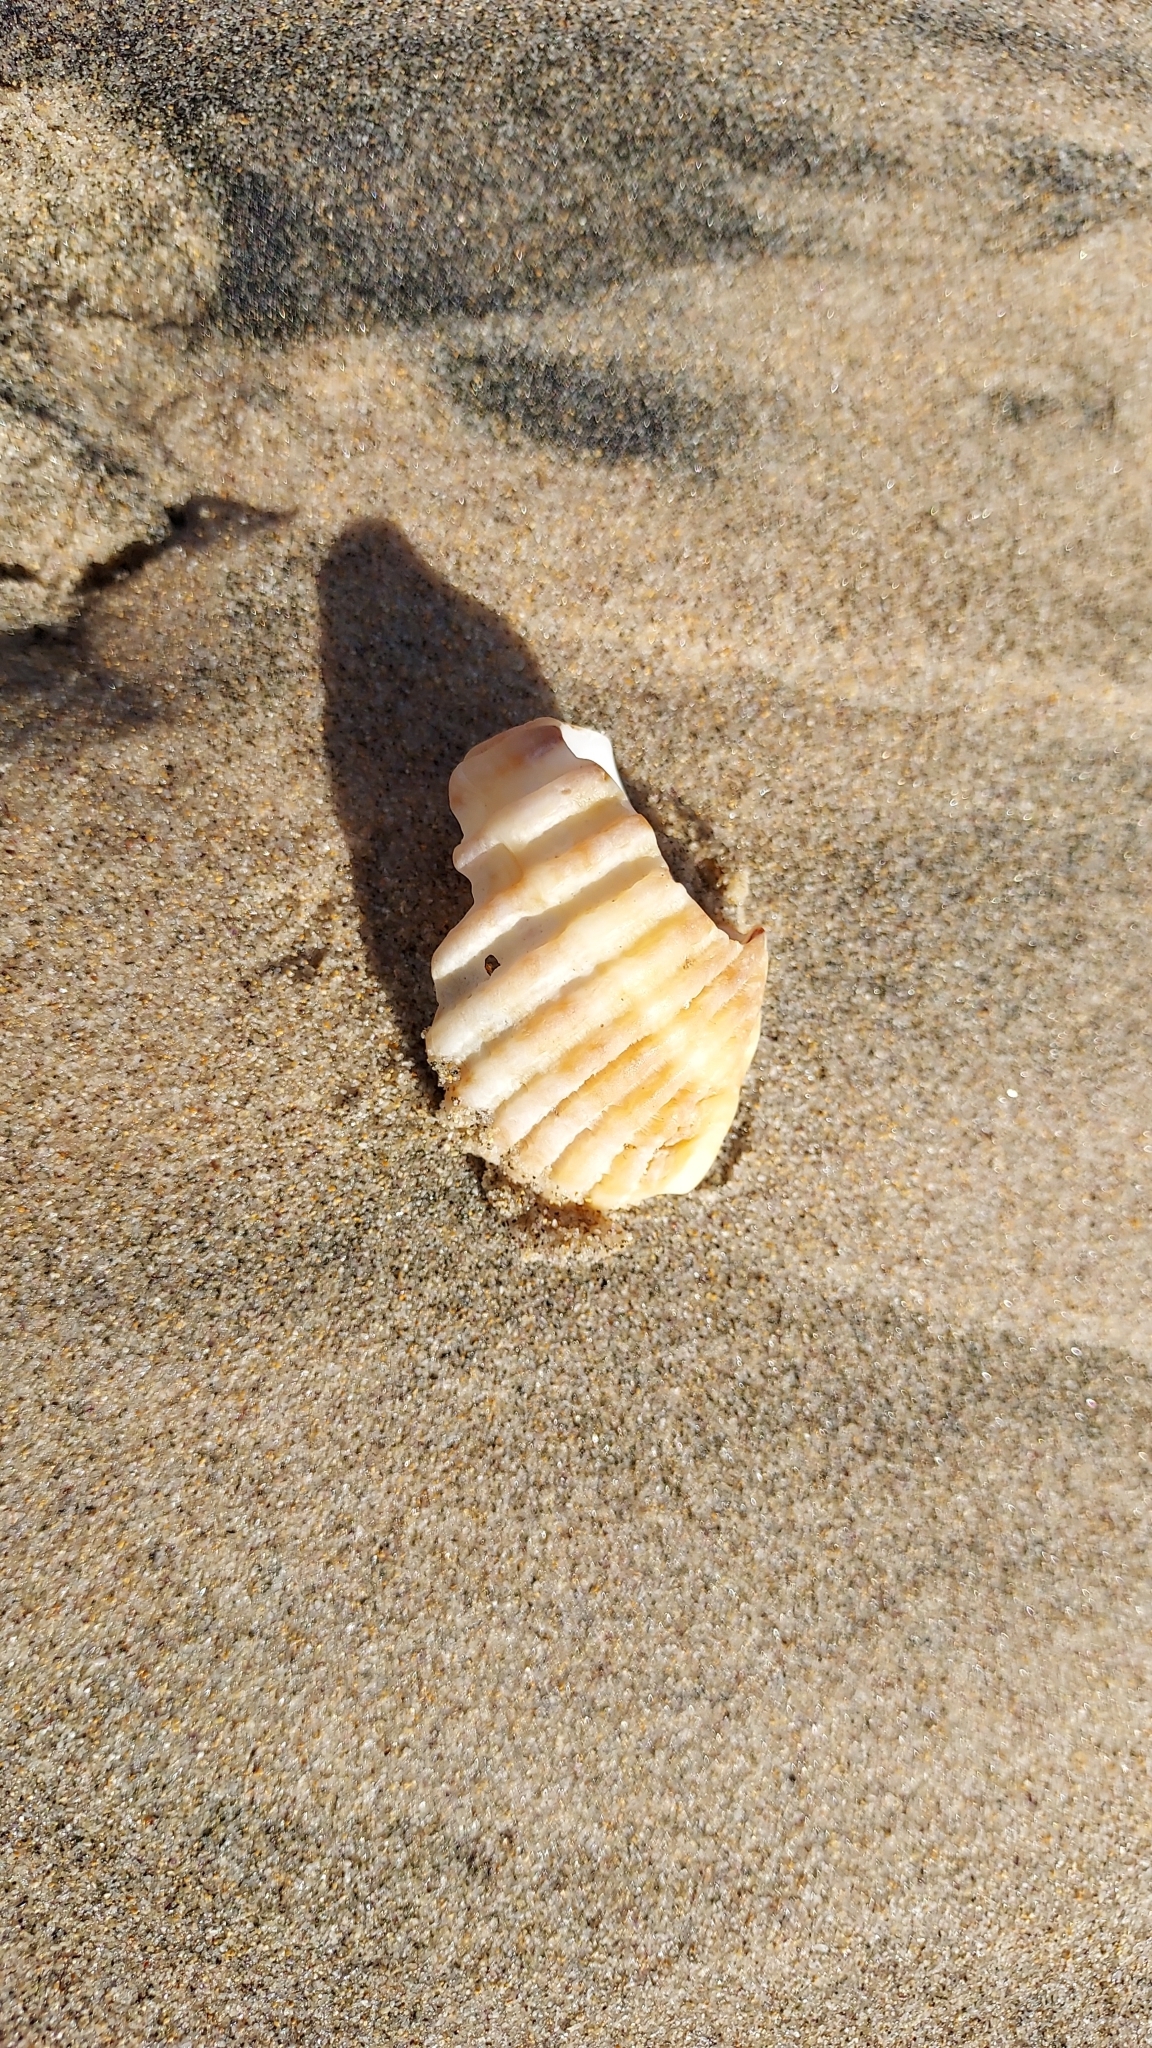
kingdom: Animalia
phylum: Mollusca
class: Gastropoda
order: Neogastropoda
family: Muricidae
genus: Dicathais
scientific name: Dicathais orbita
